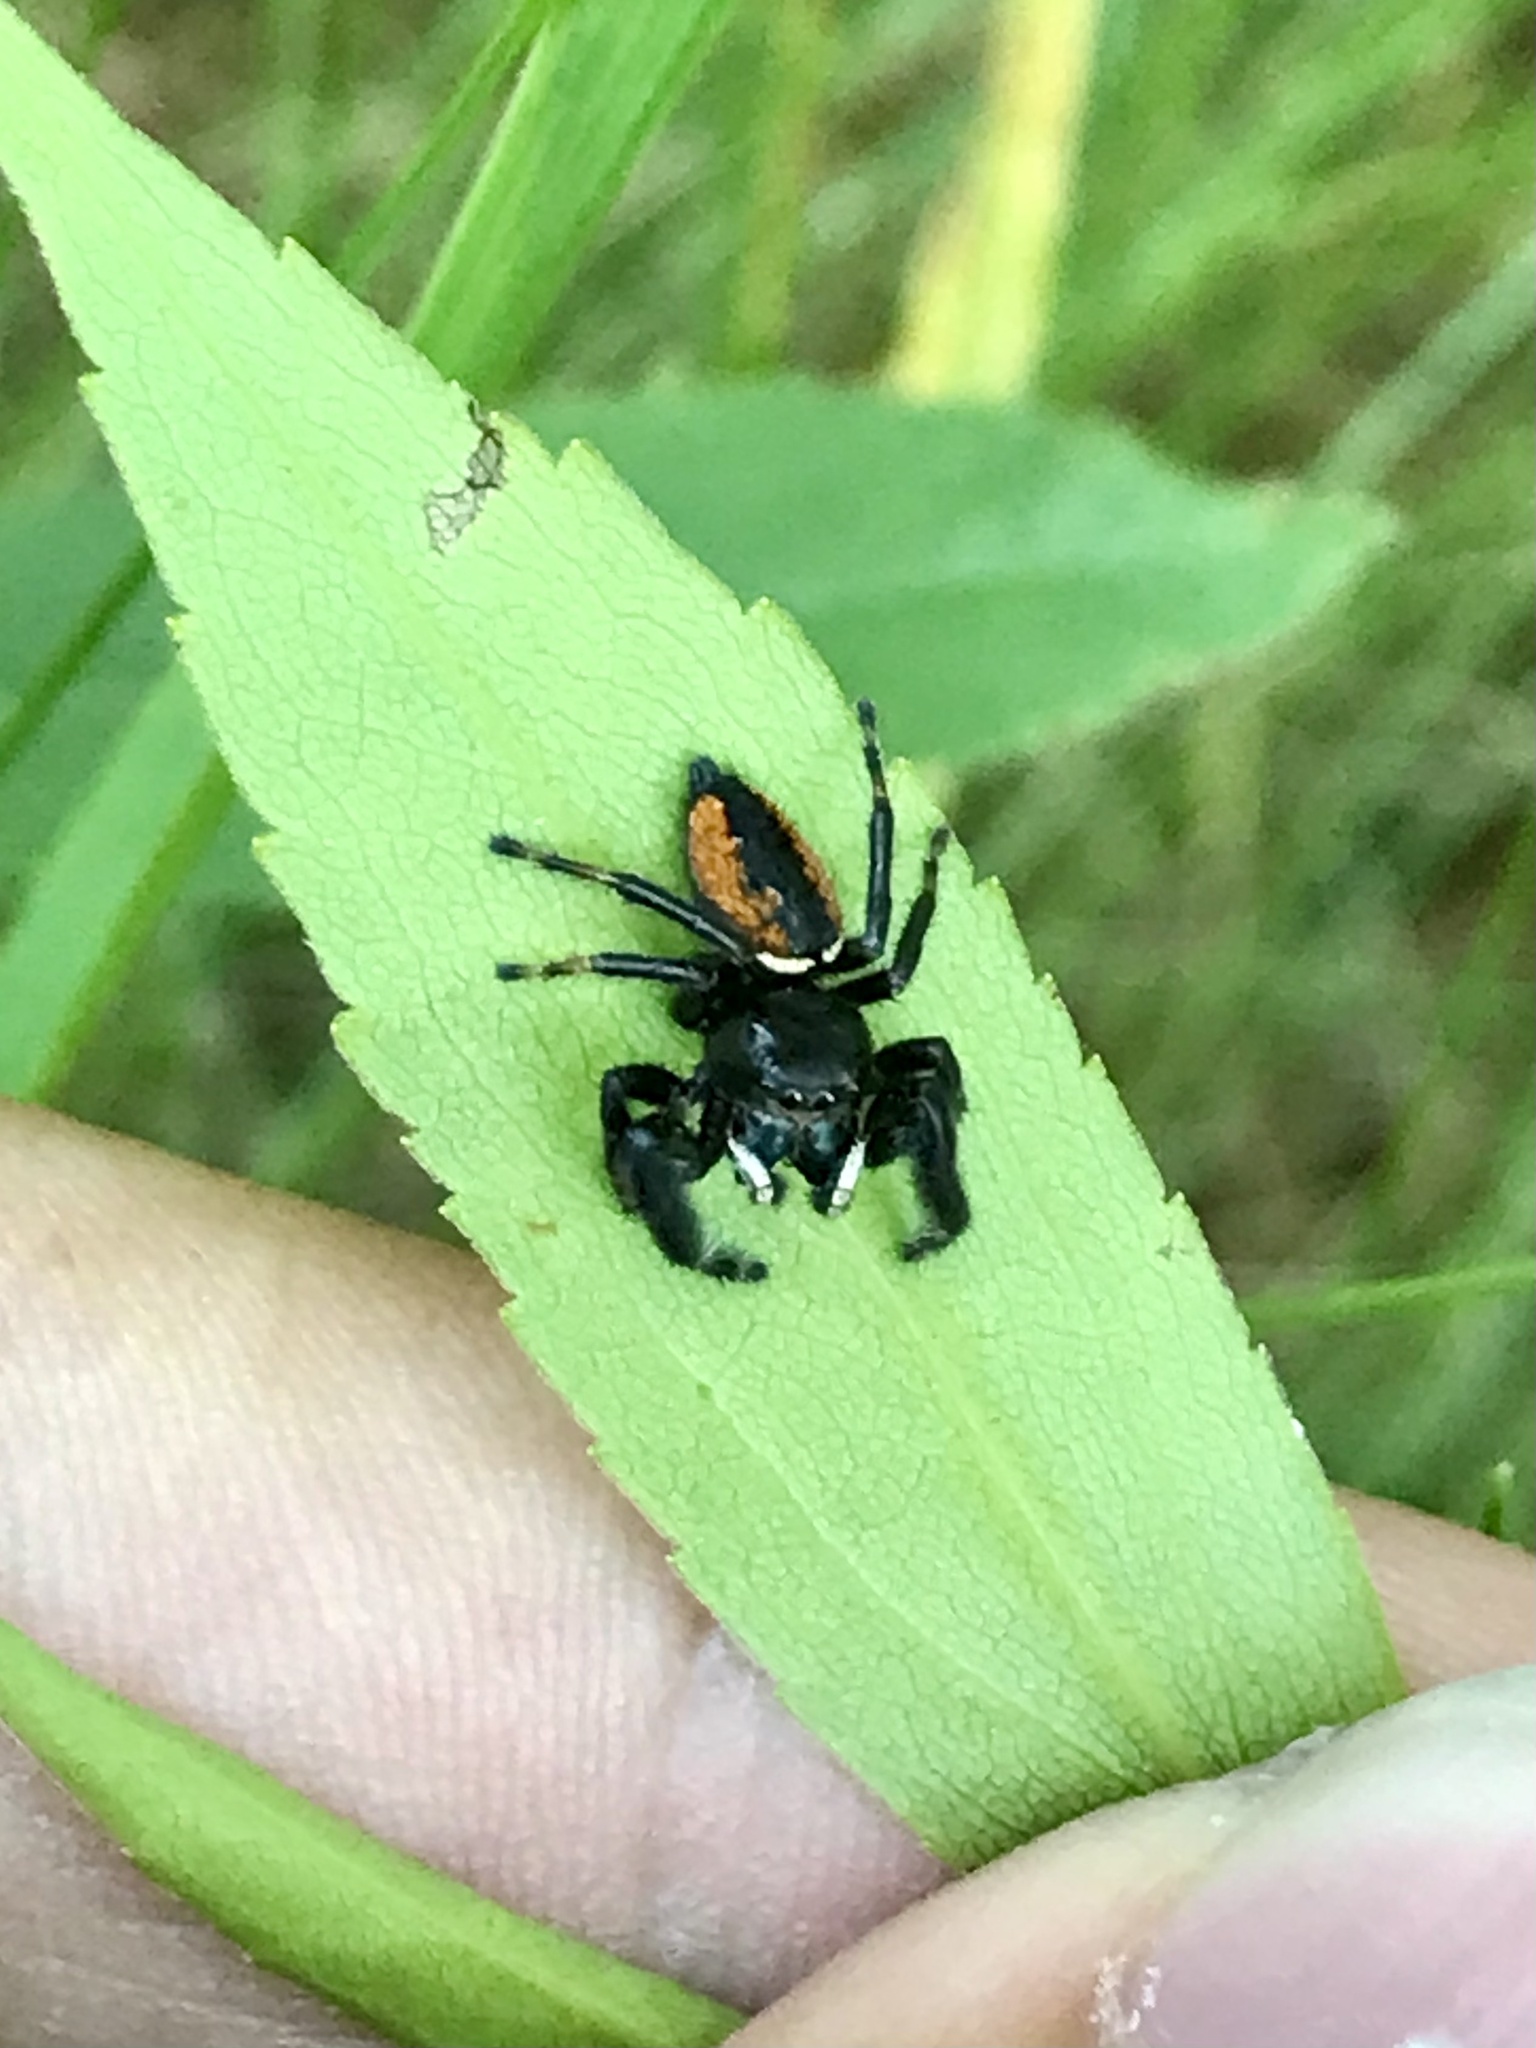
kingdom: Animalia
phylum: Arthropoda
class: Arachnida
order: Araneae
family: Salticidae
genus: Phidippus
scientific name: Phidippus clarus
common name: Brilliant jumping spider
